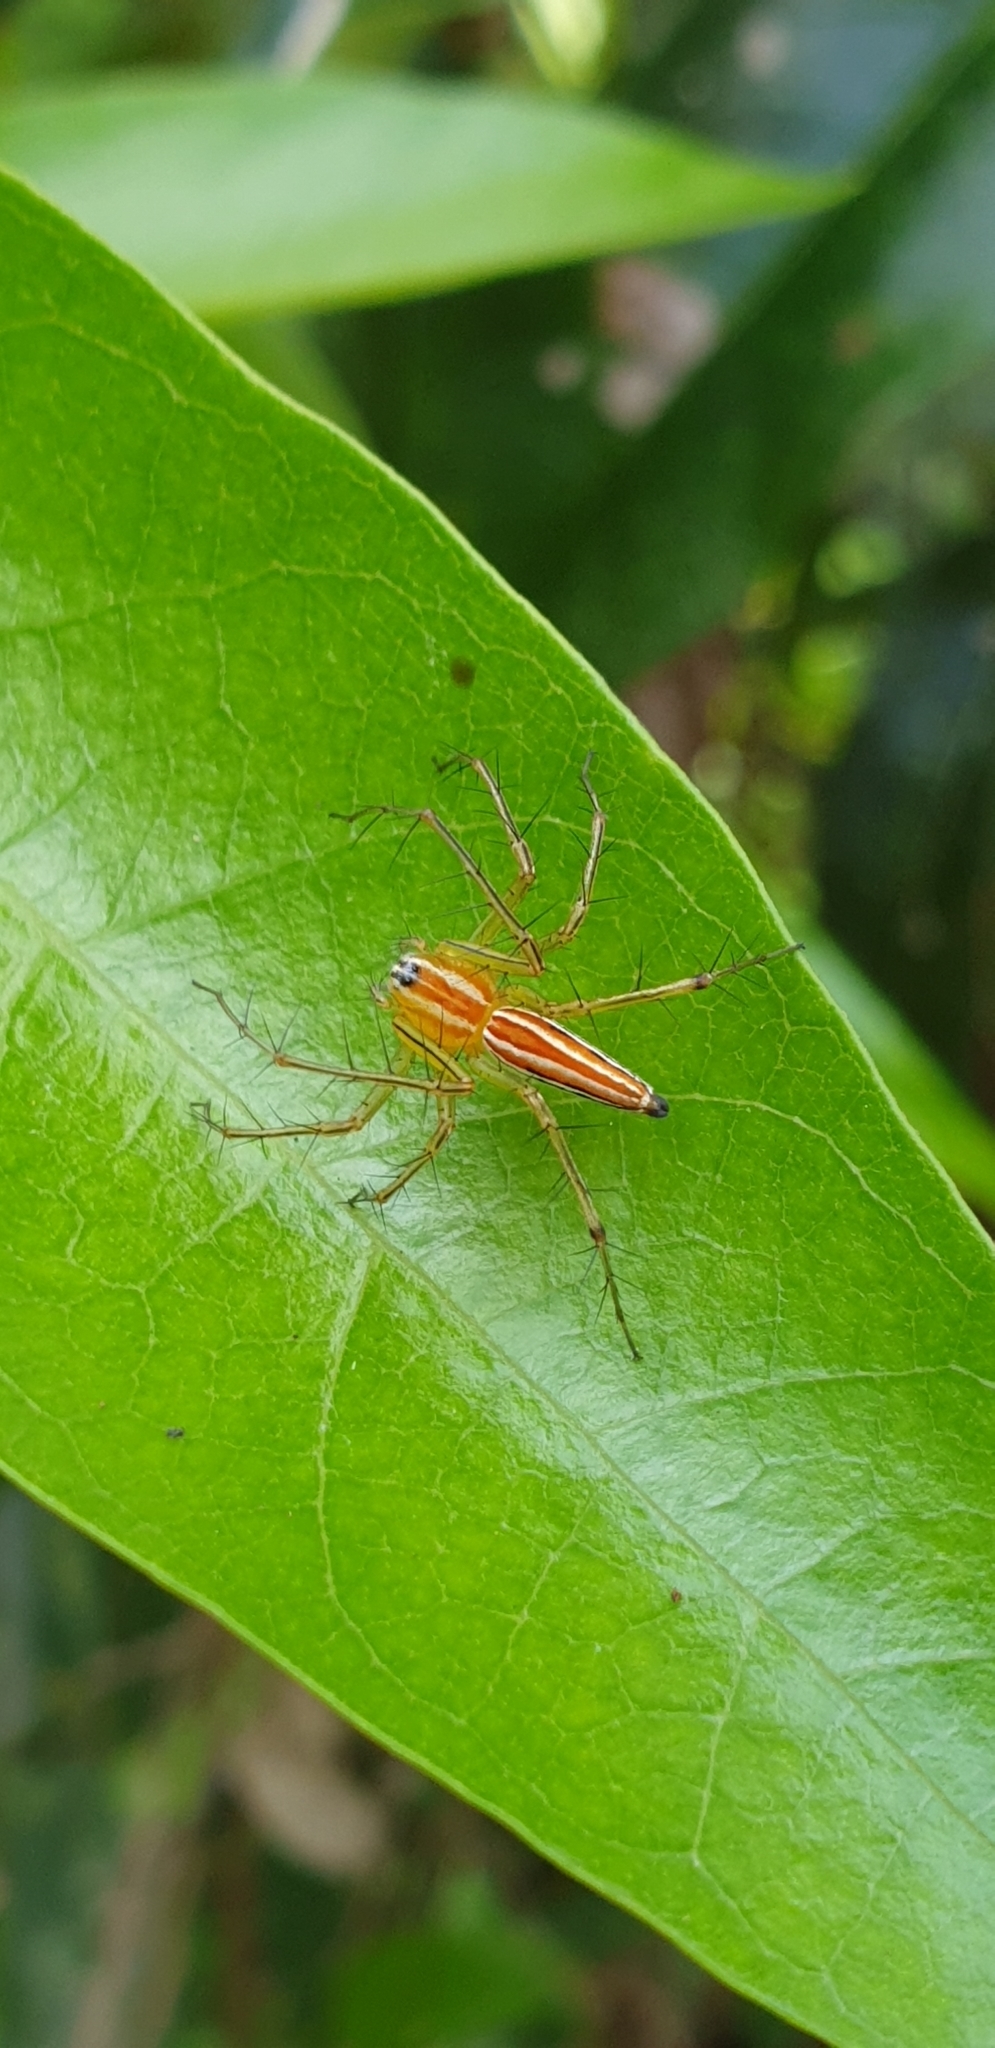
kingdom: Animalia
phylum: Arthropoda
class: Arachnida
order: Araneae
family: Oxyopidae
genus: Oxyopes
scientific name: Oxyopes macilentus
